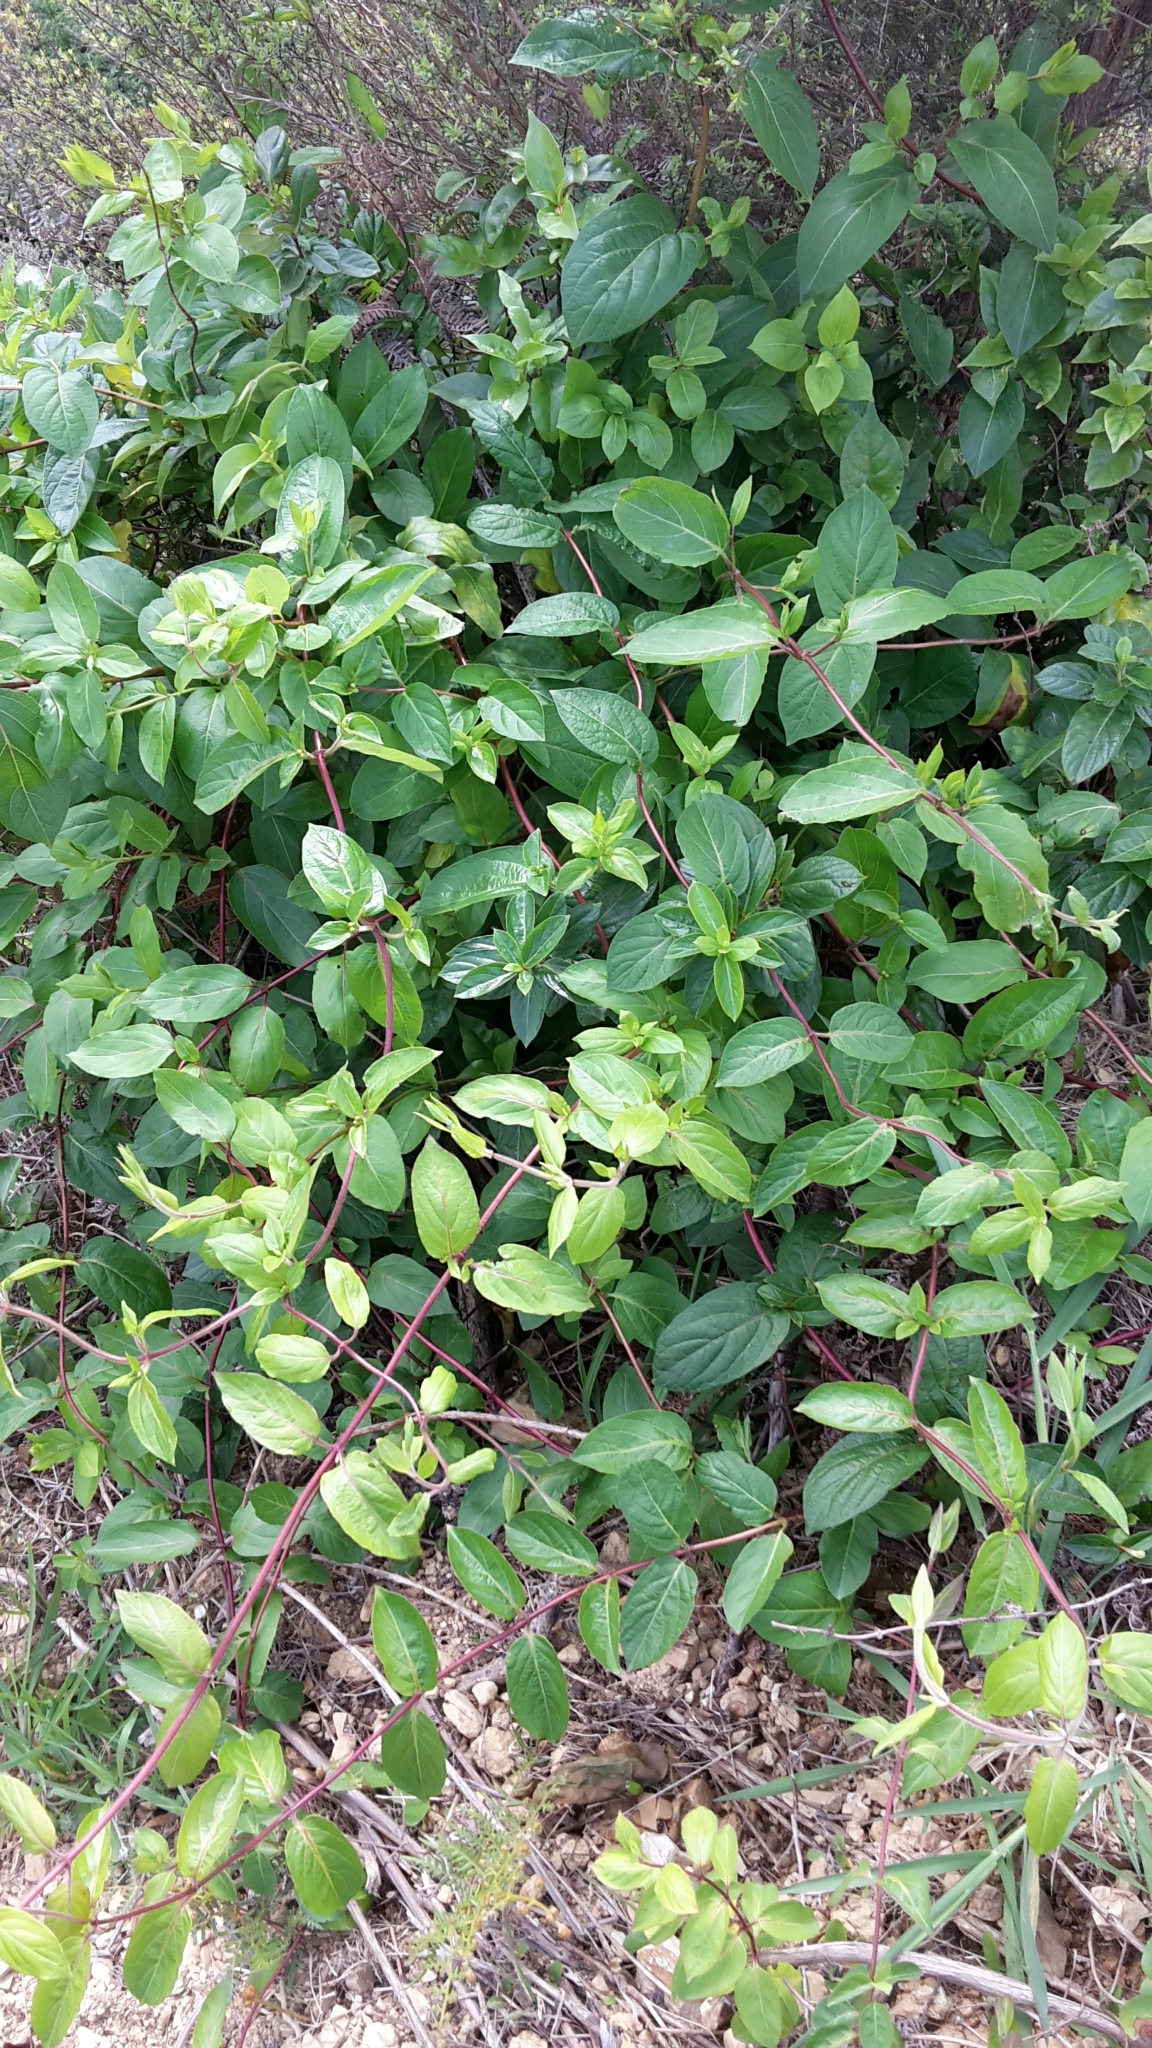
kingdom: Plantae
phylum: Tracheophyta
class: Magnoliopsida
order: Dipsacales
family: Caprifoliaceae
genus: Lonicera
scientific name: Lonicera japonica
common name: Japanese honeysuckle
